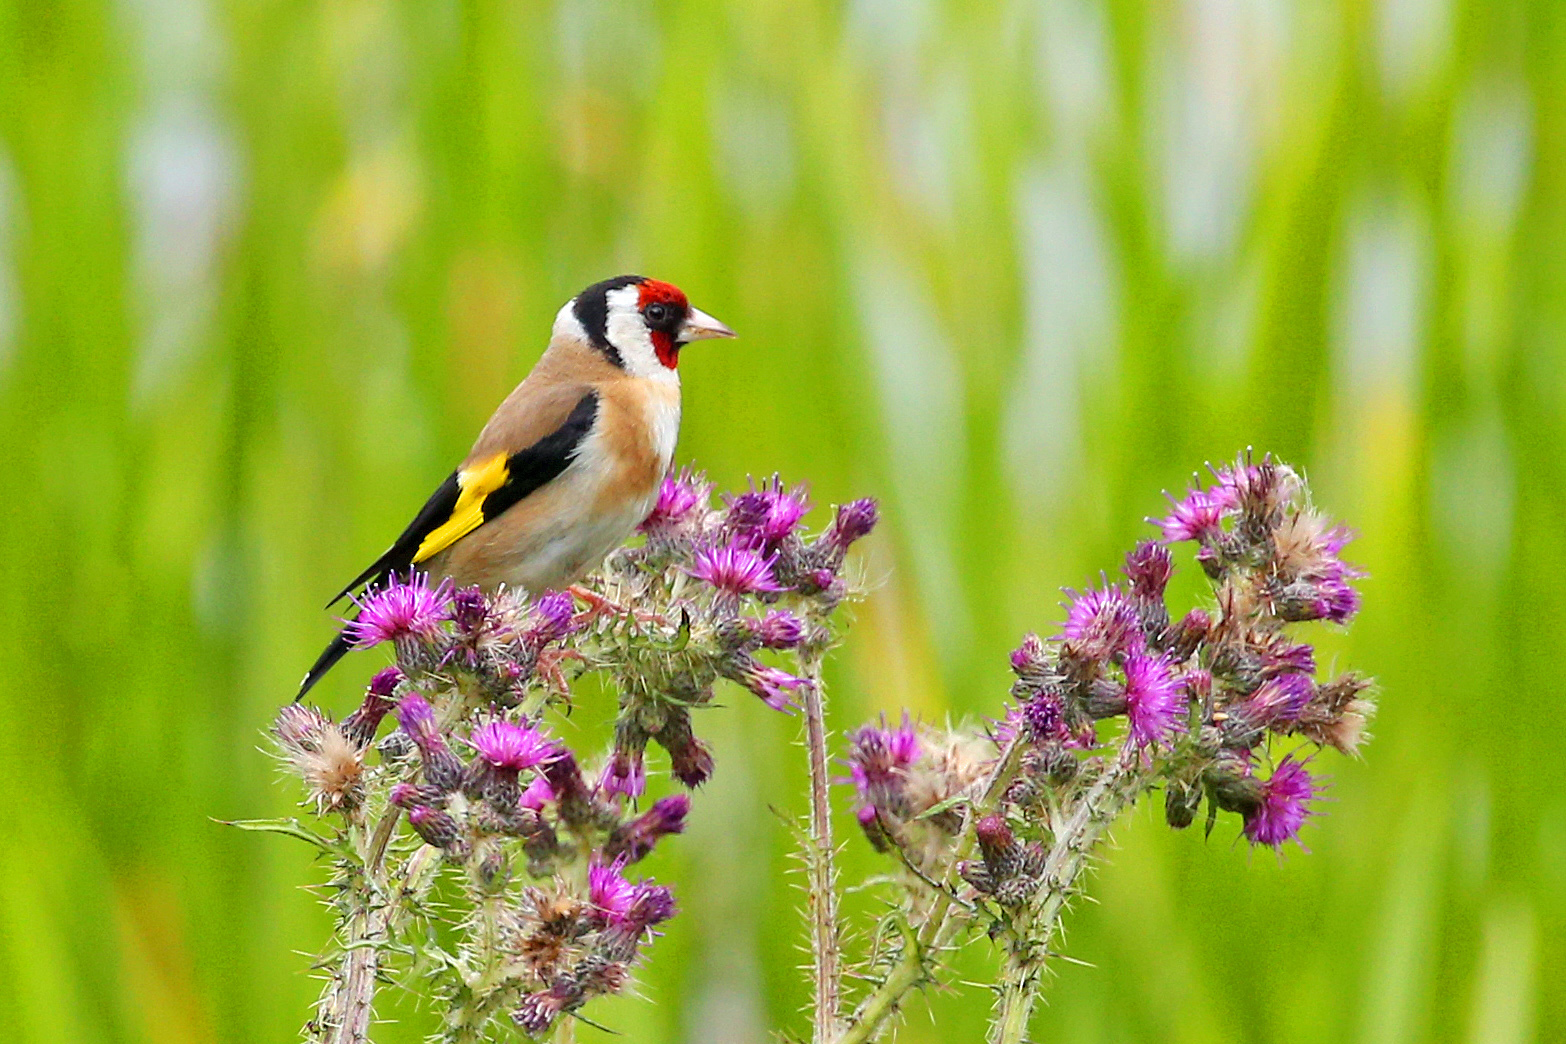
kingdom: Animalia
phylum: Chordata
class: Aves
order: Passeriformes
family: Fringillidae
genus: Carduelis
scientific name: Carduelis carduelis
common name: European goldfinch
